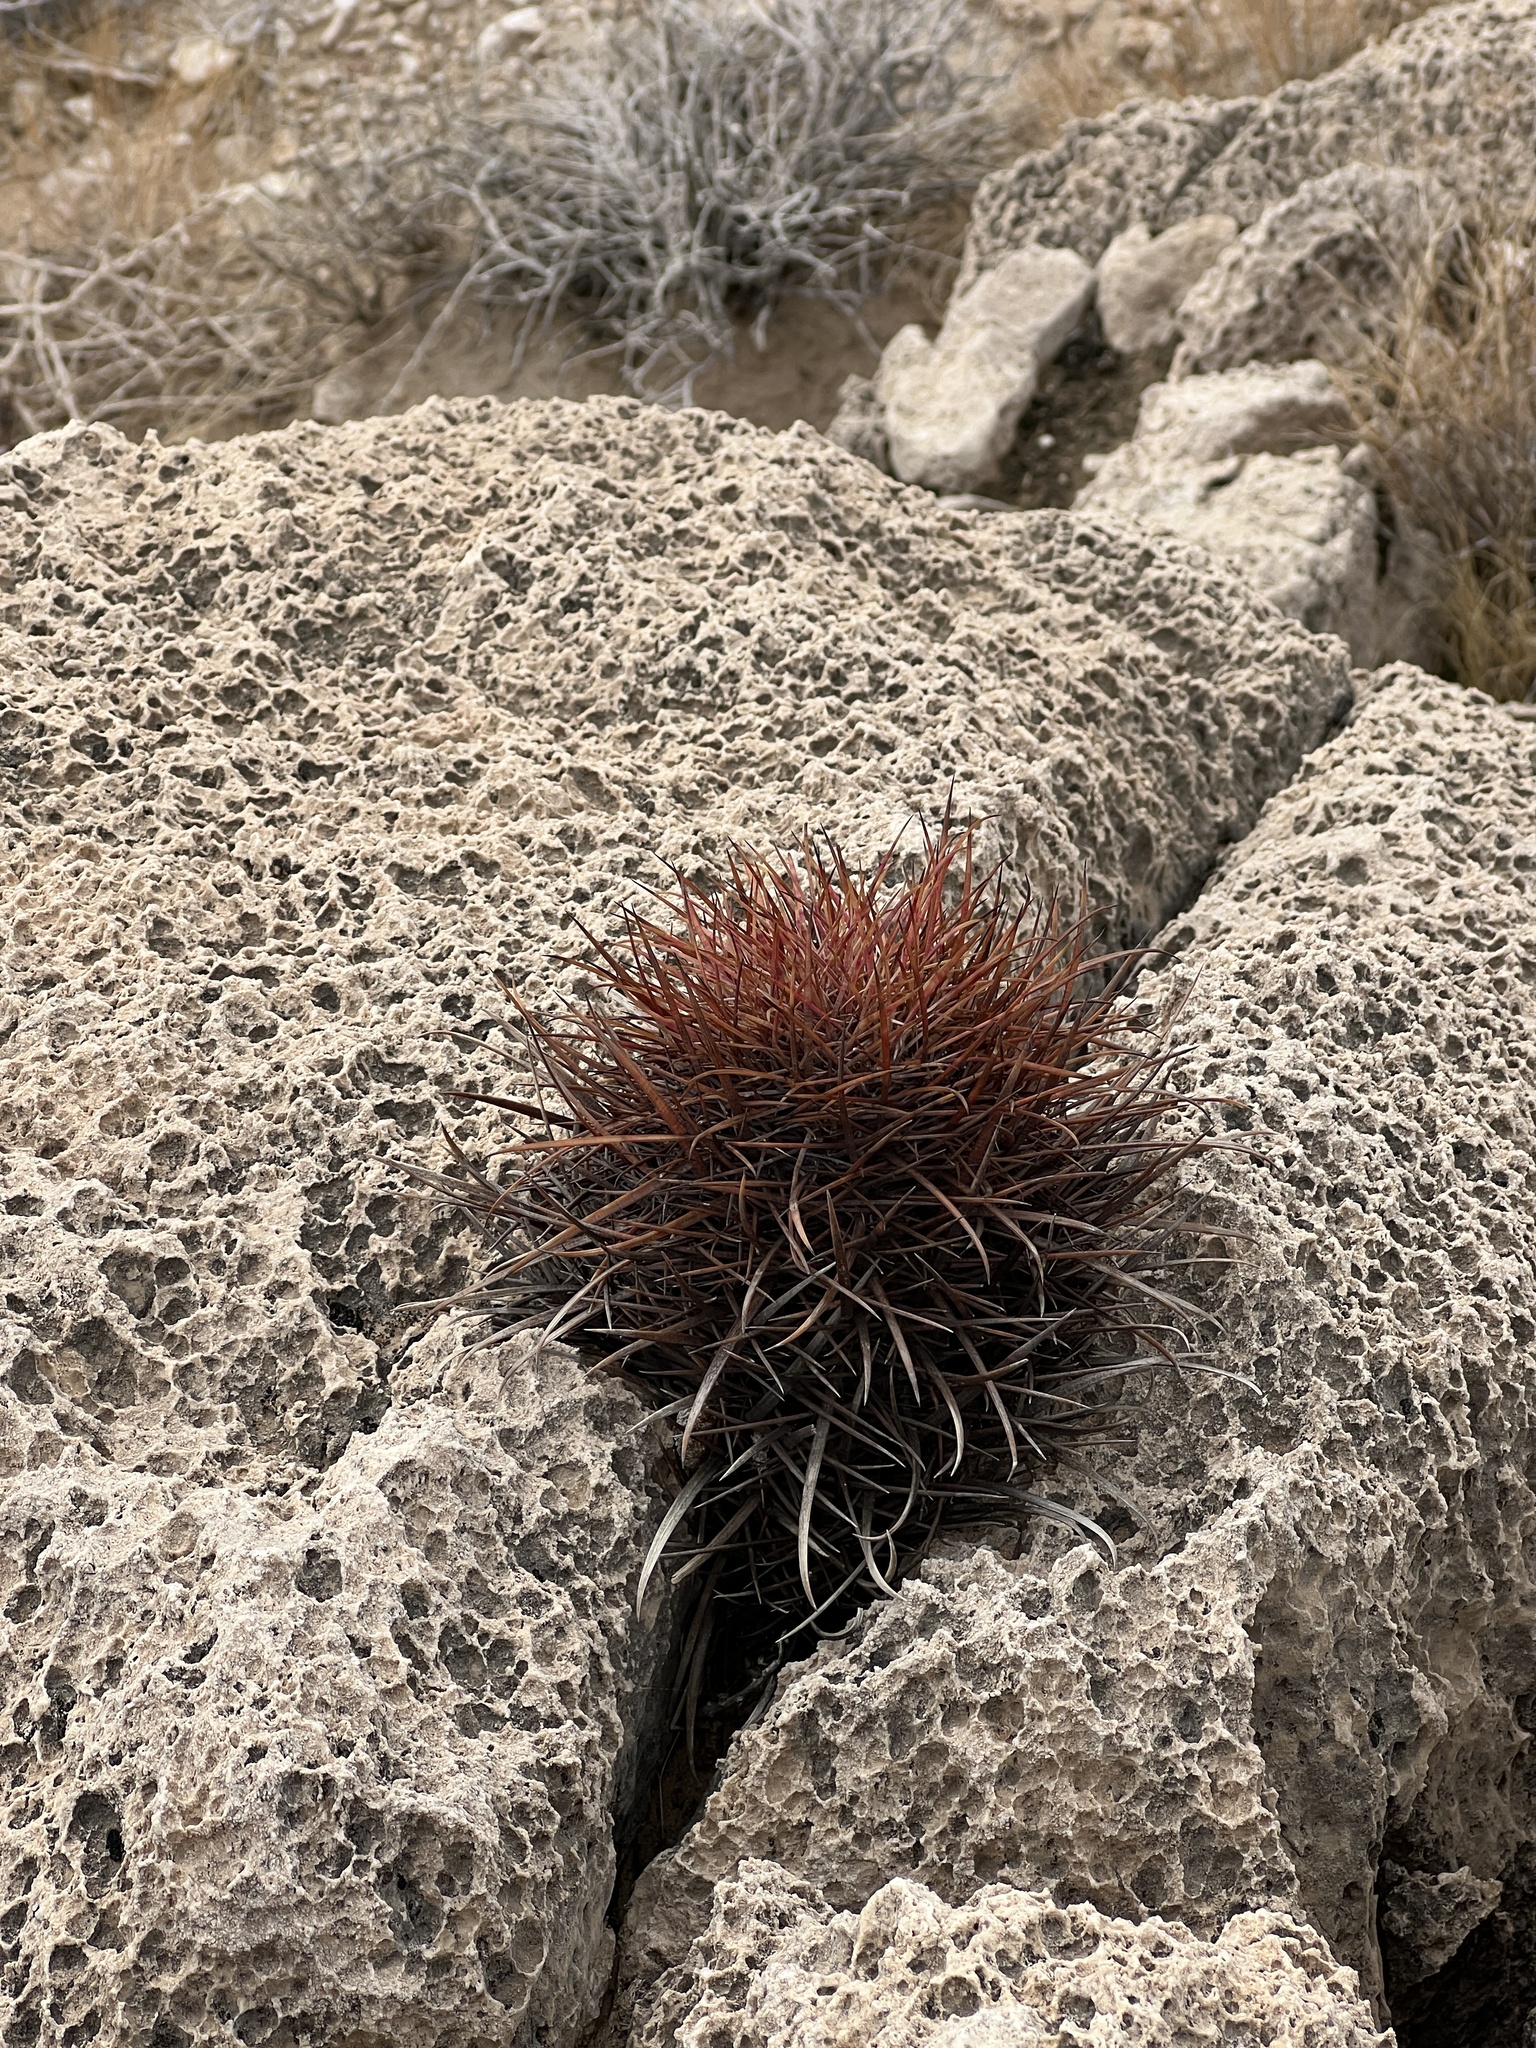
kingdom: Plantae
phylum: Tracheophyta
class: Magnoliopsida
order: Caryophyllales
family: Cactaceae
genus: Ferocactus
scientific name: Ferocactus cylindraceus
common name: California barrel cactus
